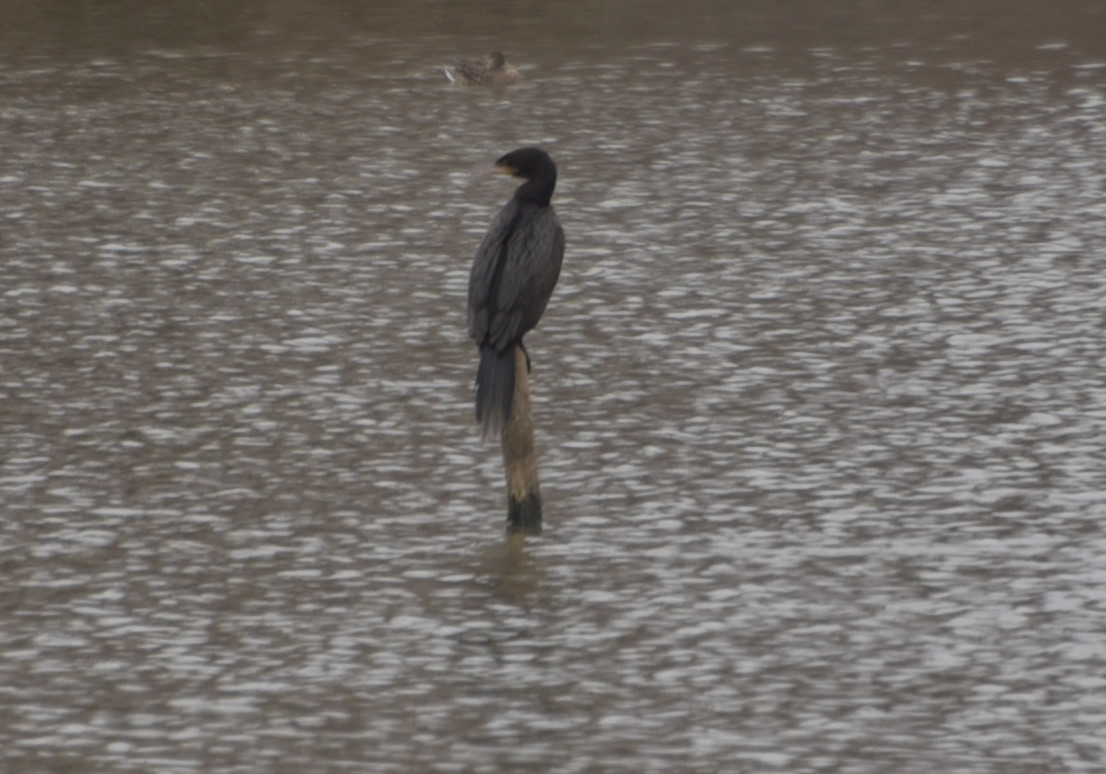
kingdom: Animalia
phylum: Chordata
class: Aves
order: Suliformes
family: Phalacrocoracidae
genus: Phalacrocorax
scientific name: Phalacrocorax brasilianus
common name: Neotropic cormorant
